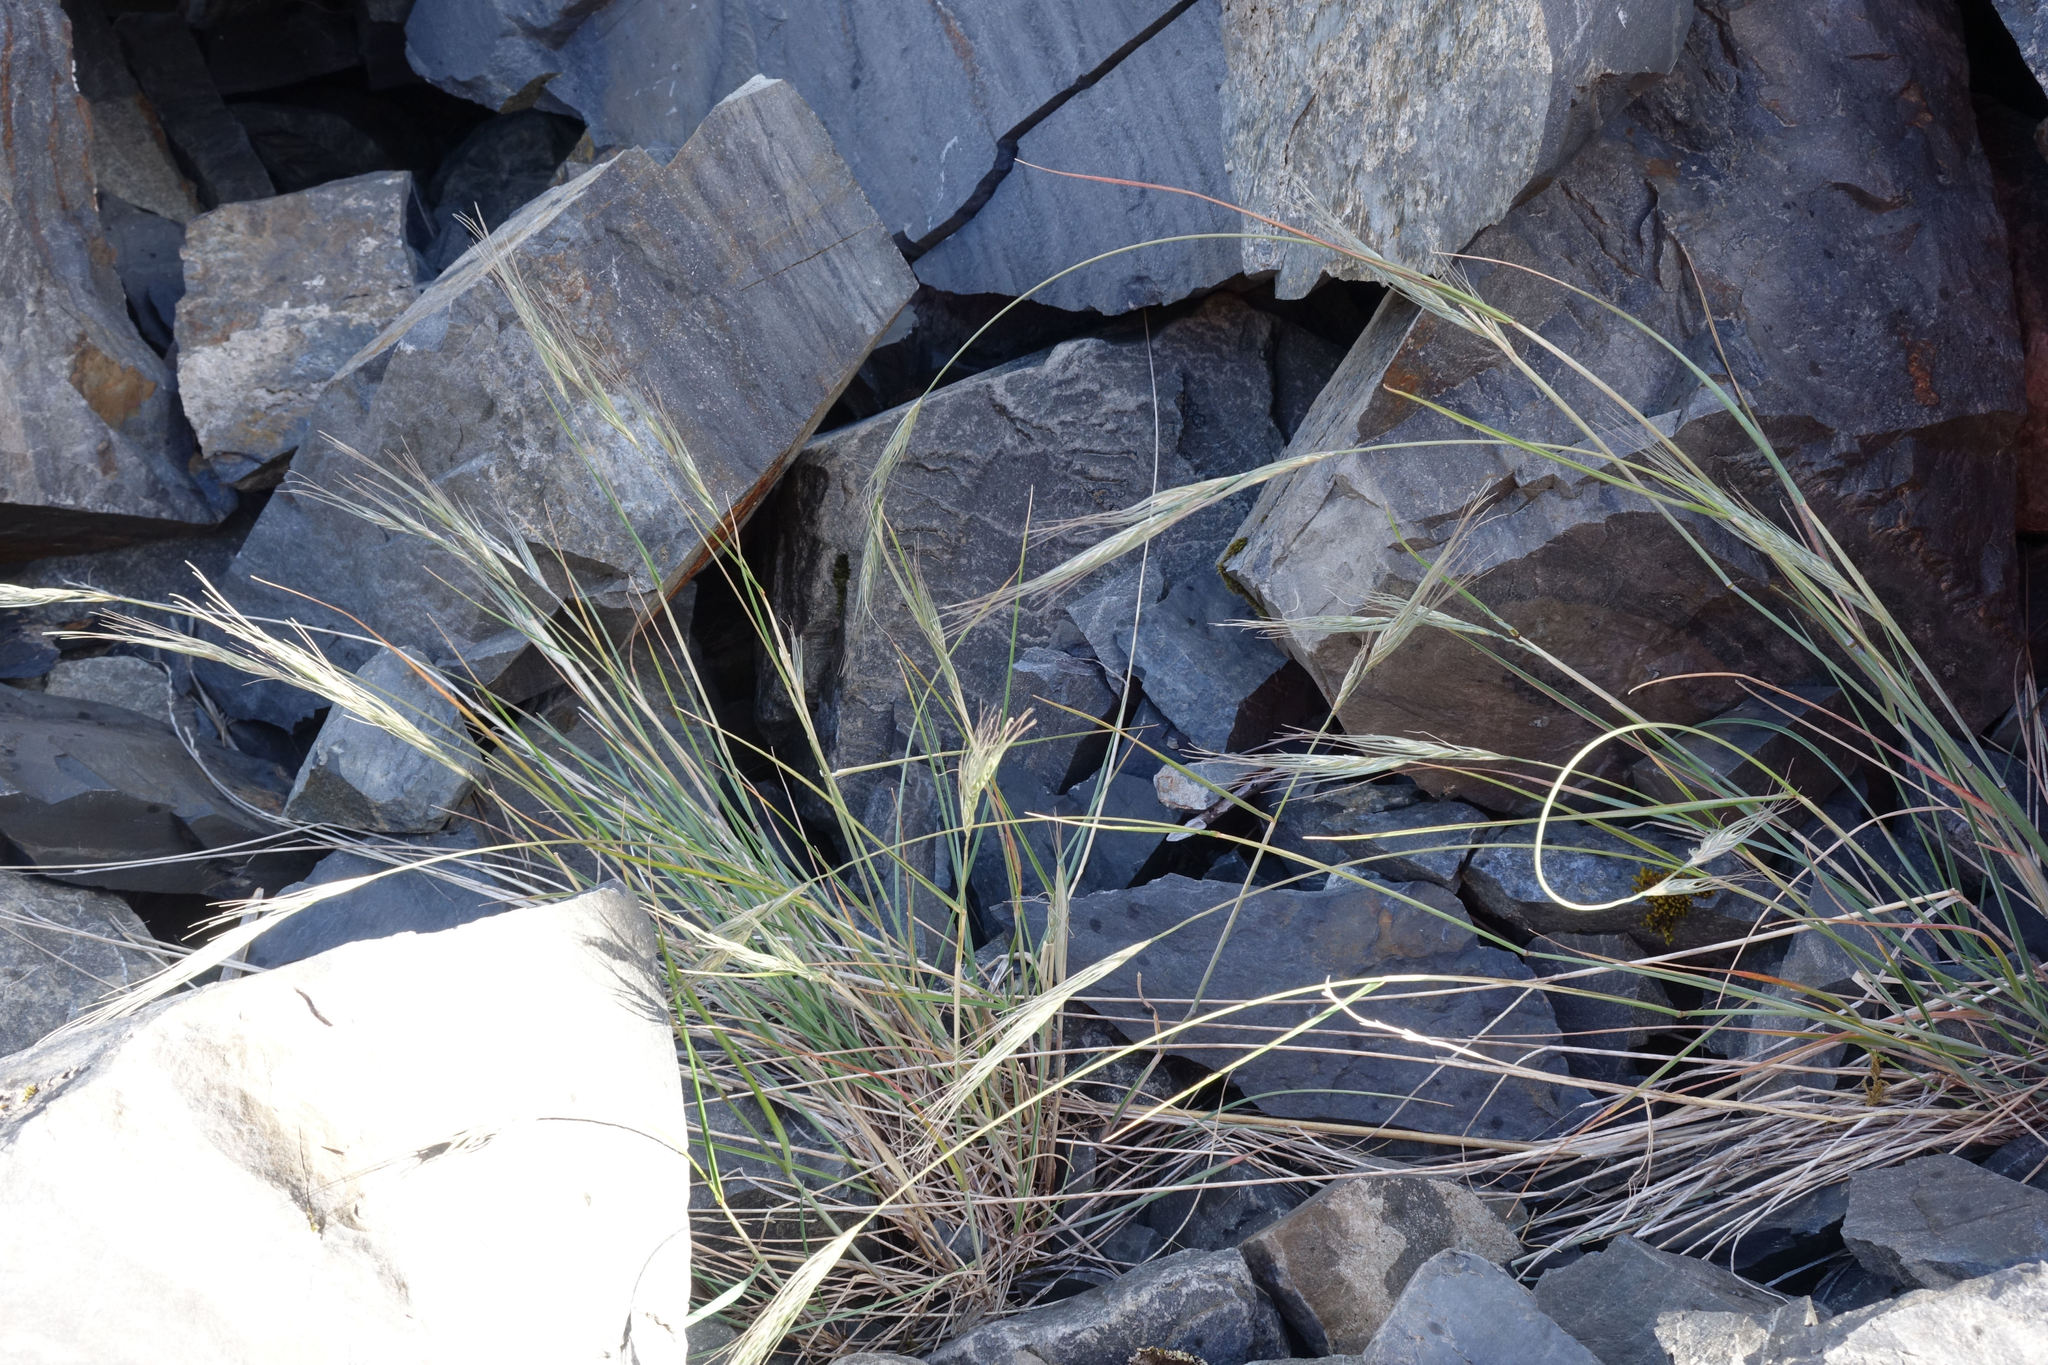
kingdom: Plantae
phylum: Tracheophyta
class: Liliopsida
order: Poales
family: Poaceae
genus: Anthosachne
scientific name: Anthosachne solandri
